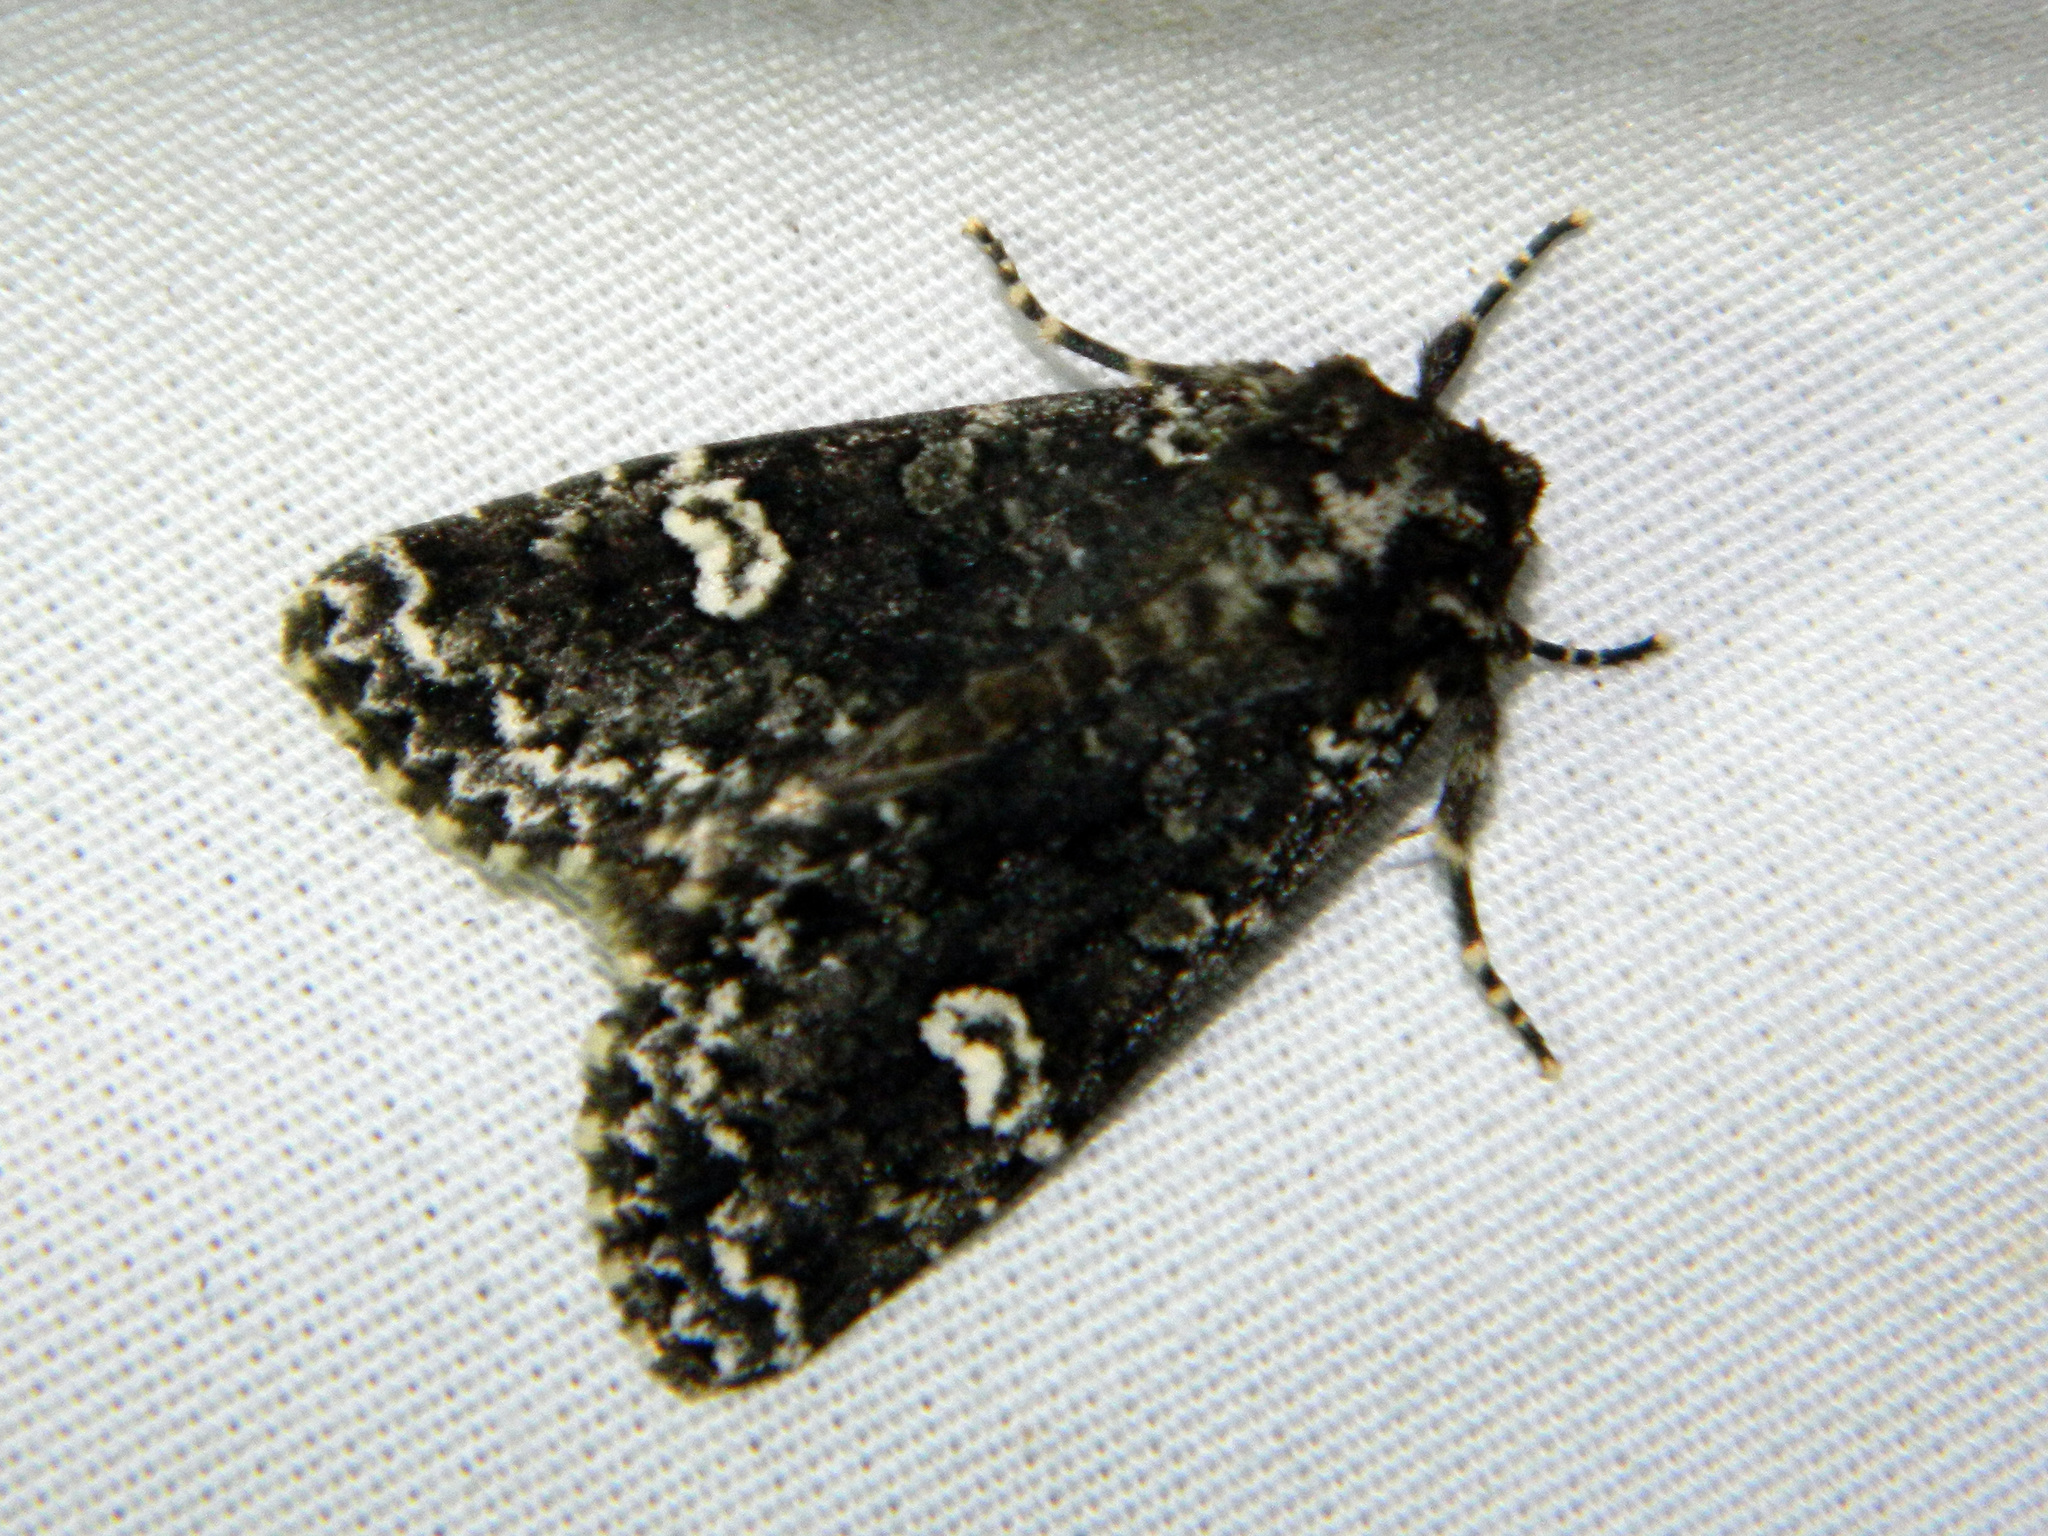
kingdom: Animalia
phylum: Arthropoda
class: Insecta
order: Lepidoptera
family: Noctuidae
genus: Melanchra
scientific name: Melanchra adjuncta
